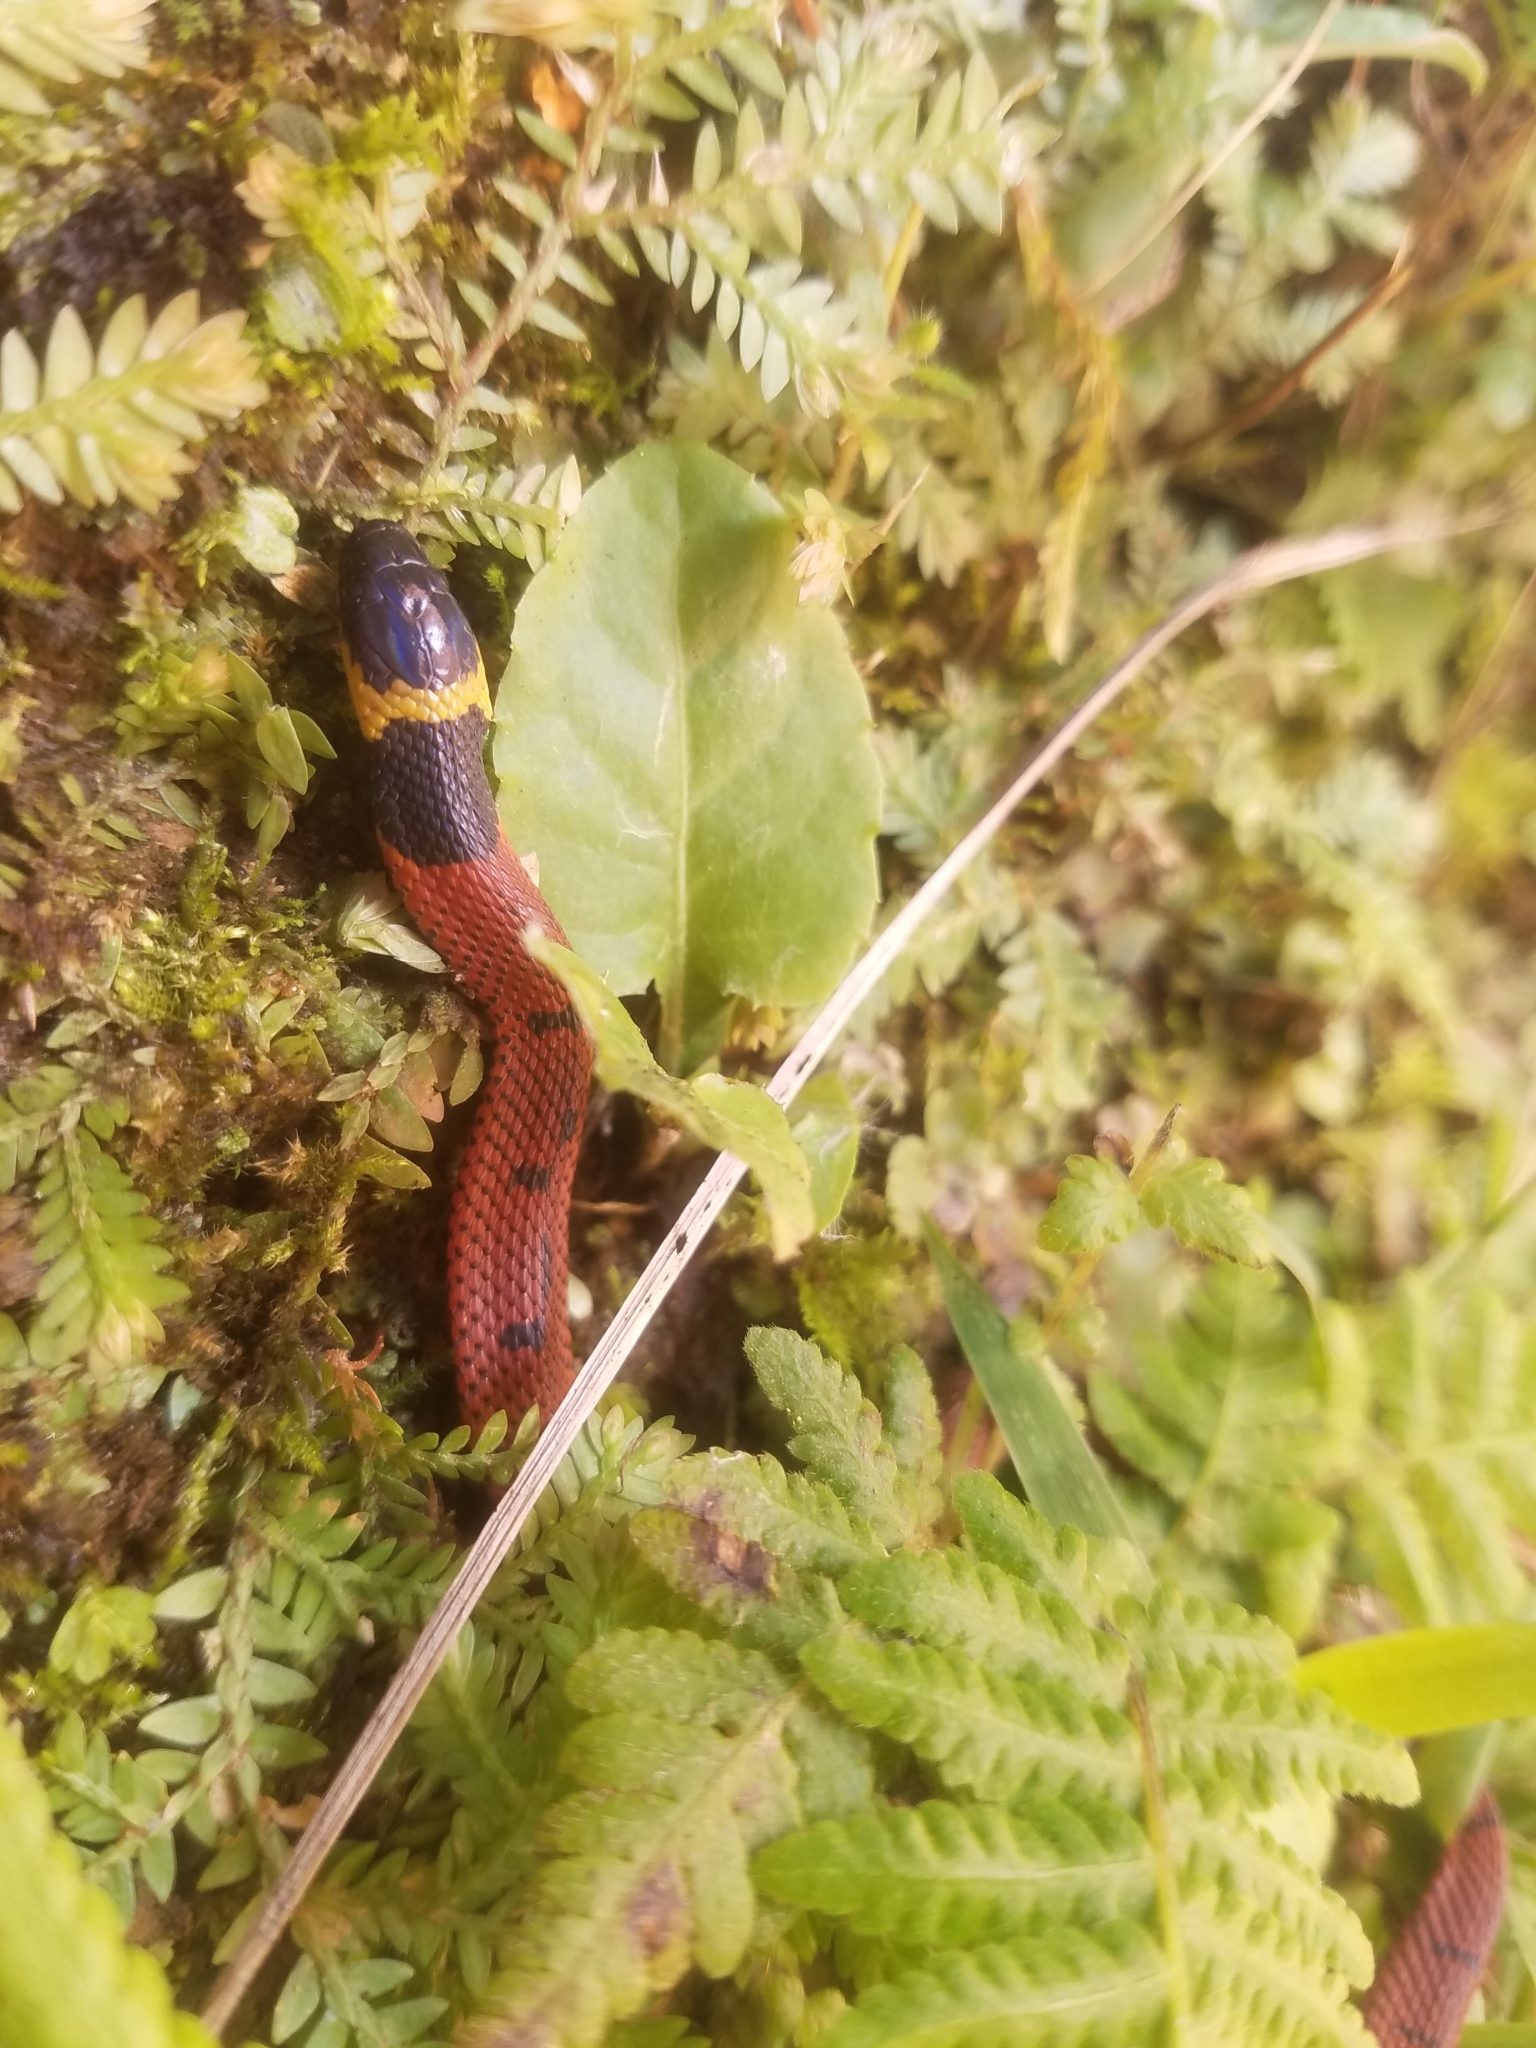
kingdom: Animalia
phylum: Chordata
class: Squamata
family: Colubridae
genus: Ninia
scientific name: Ninia sebae
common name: Redback coffee snake
